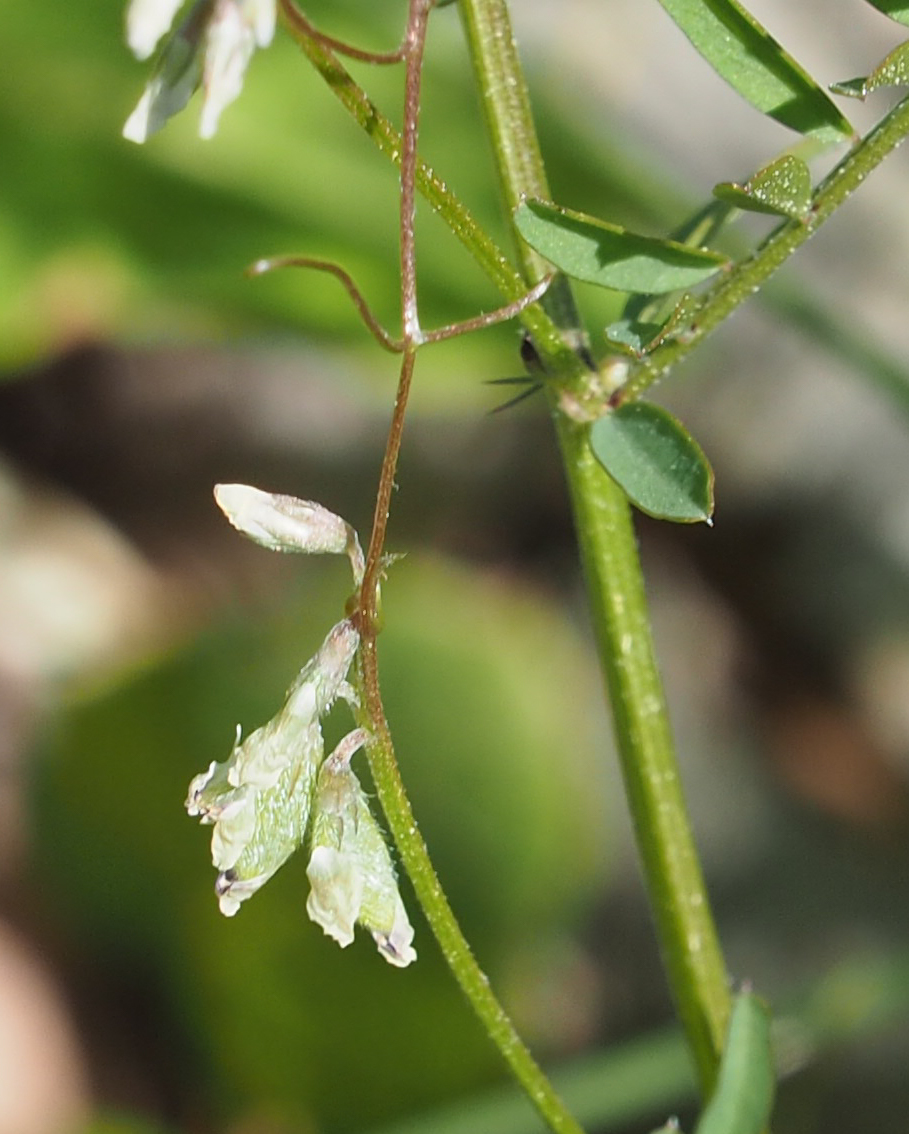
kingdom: Plantae
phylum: Tracheophyta
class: Magnoliopsida
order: Fabales
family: Fabaceae
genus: Vicia
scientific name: Vicia hirsuta
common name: Tiny vetch
